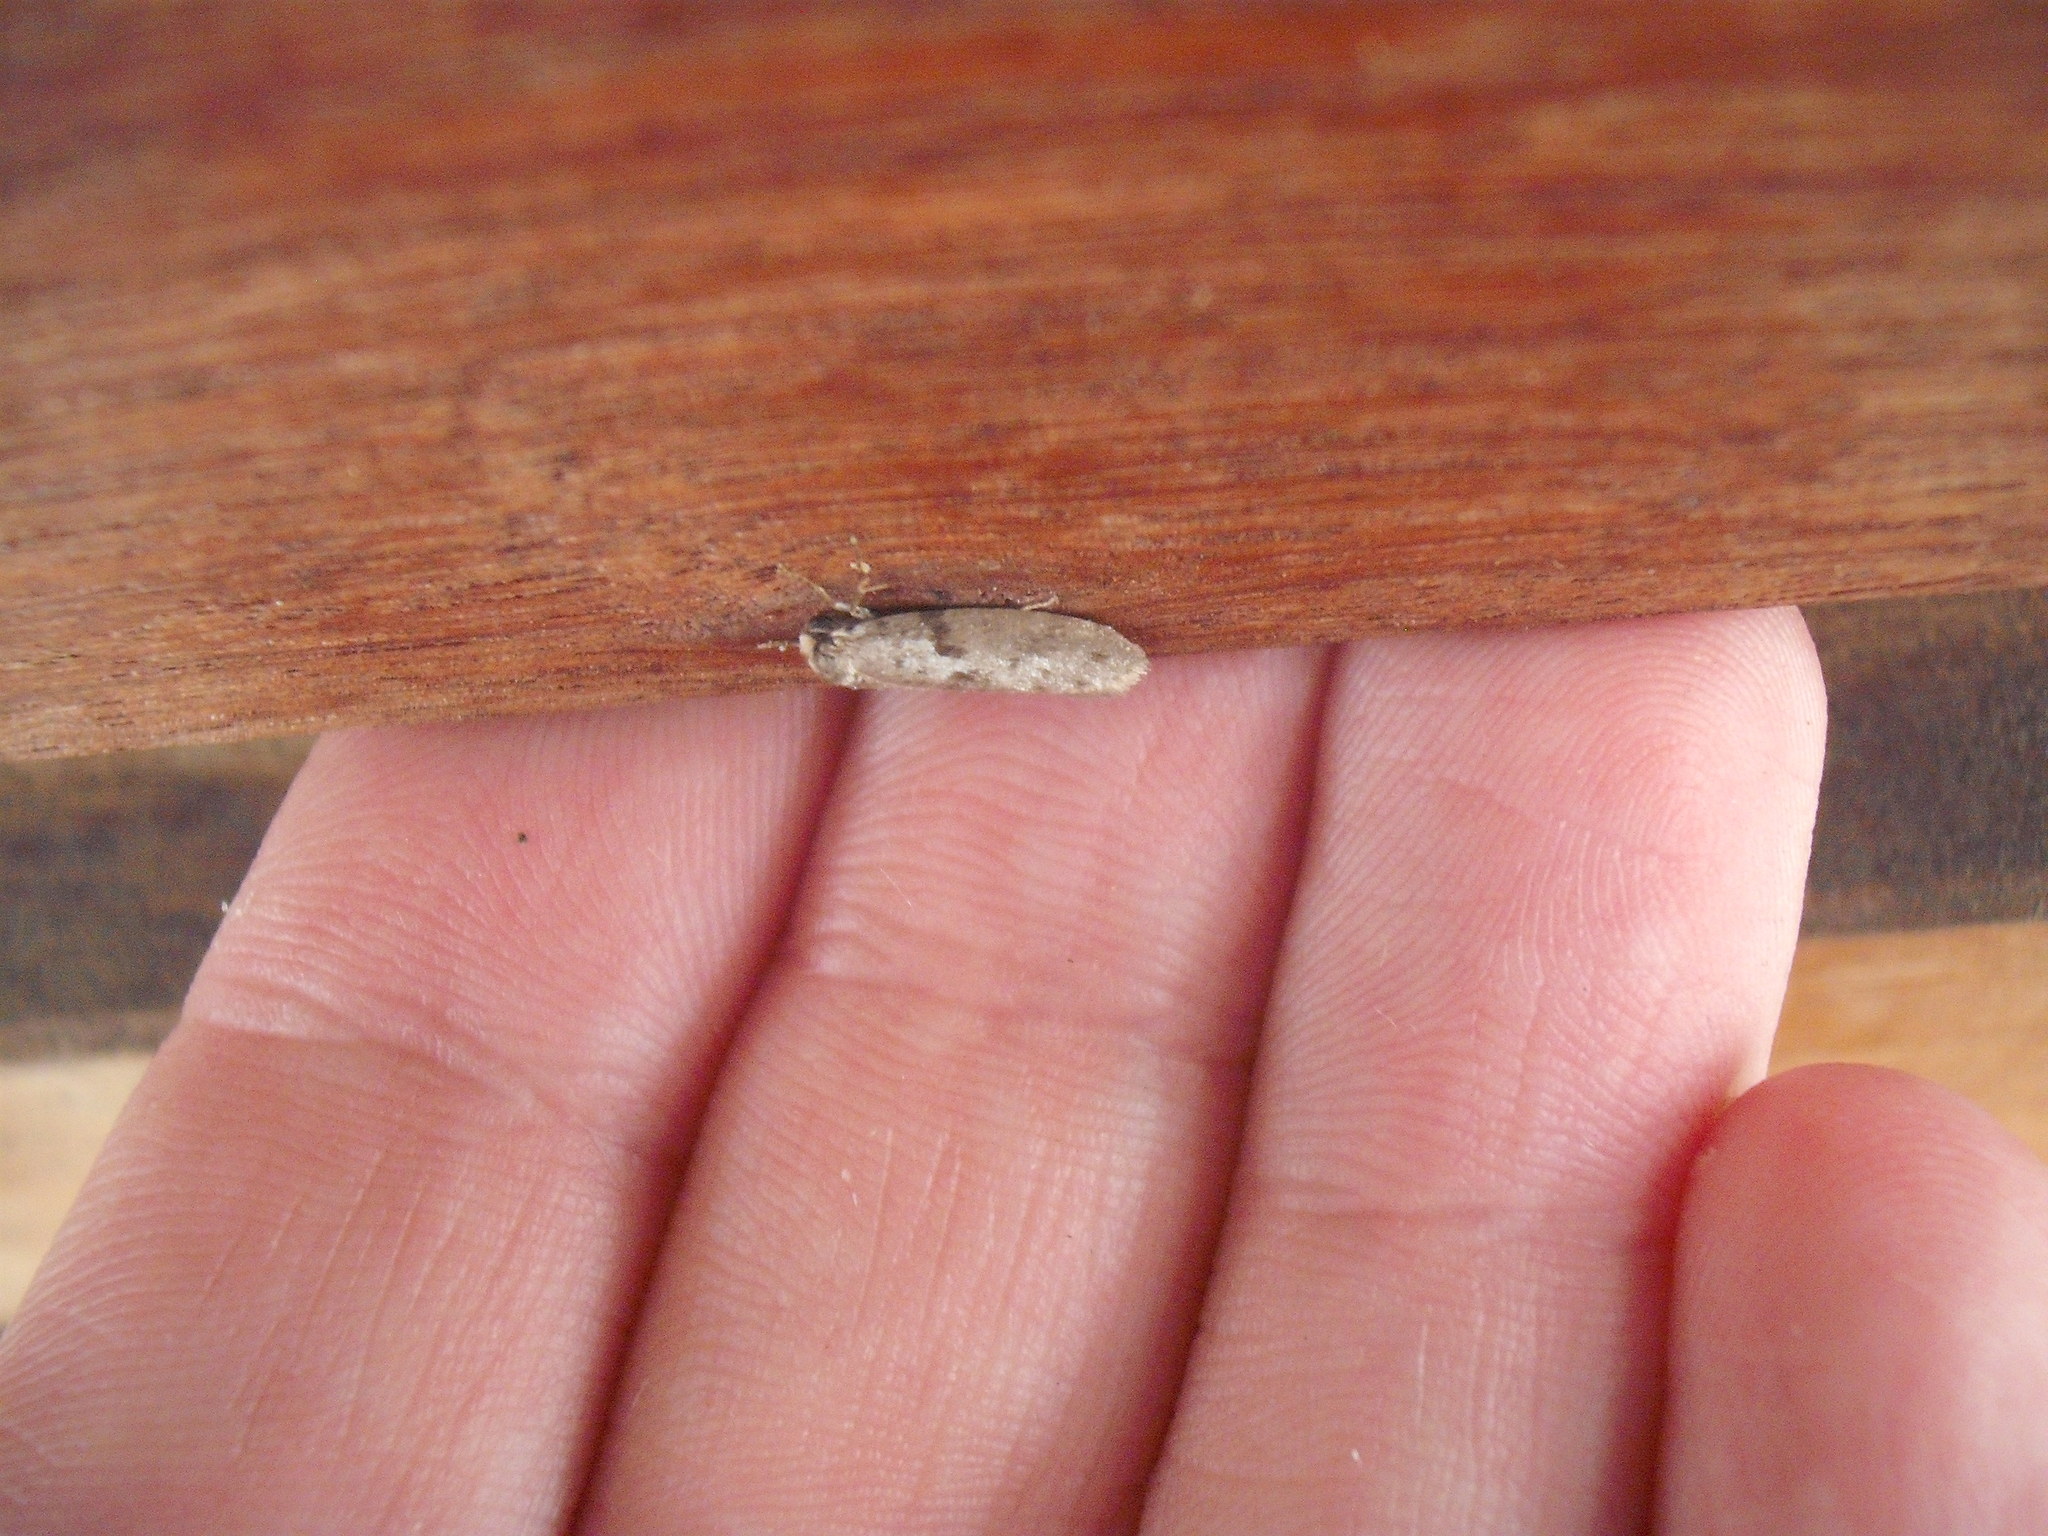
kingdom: Animalia
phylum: Arthropoda
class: Insecta
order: Lepidoptera
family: Psychidae
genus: Lepidoscia
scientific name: Lepidoscia protorna
